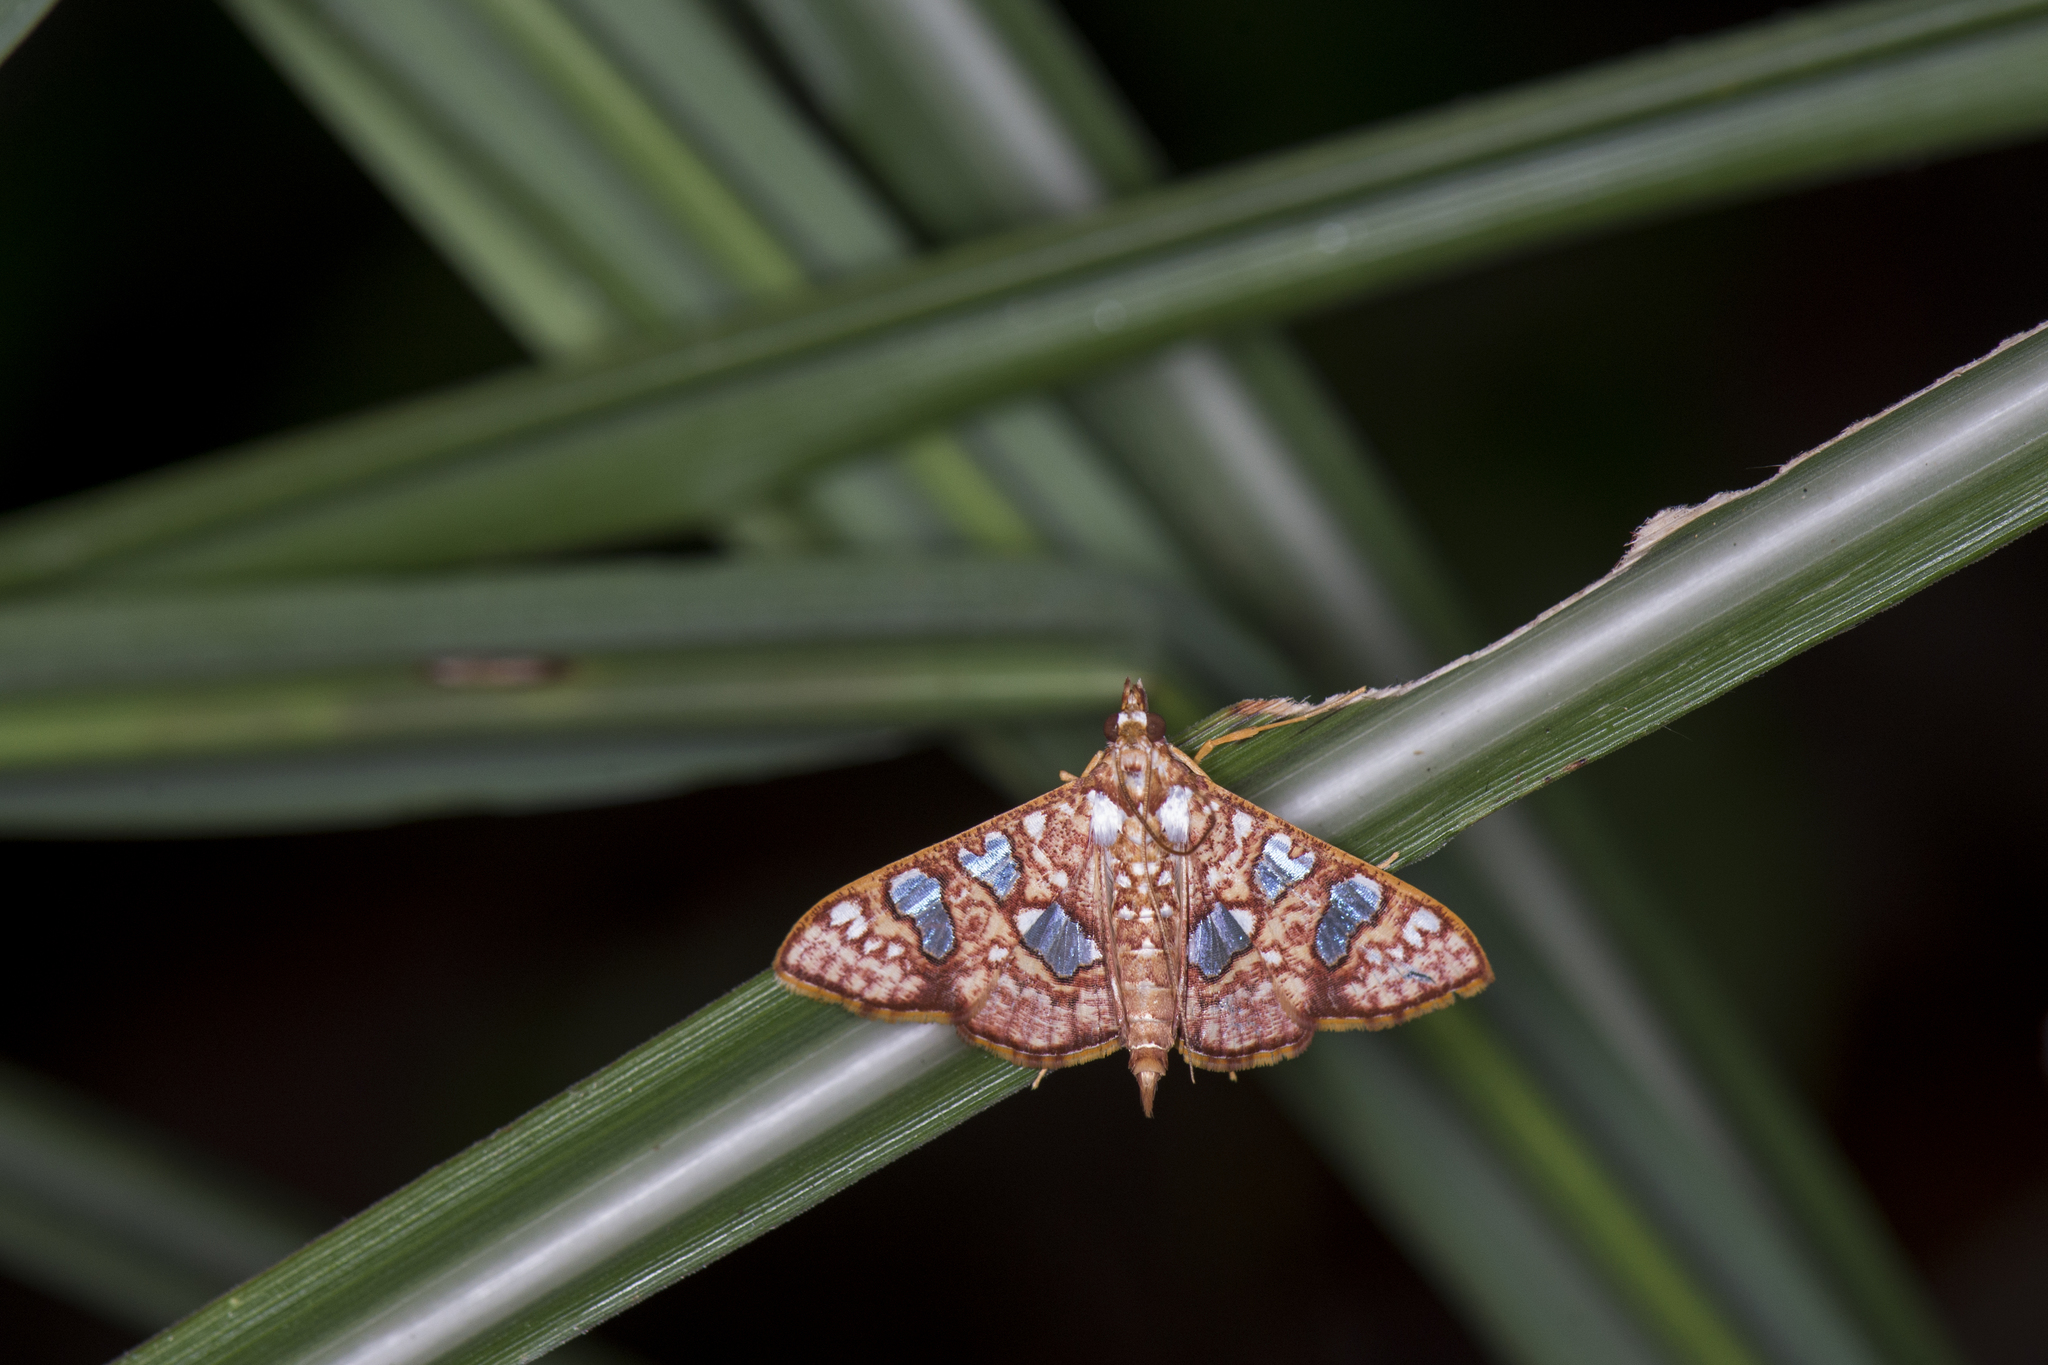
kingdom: Animalia
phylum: Arthropoda
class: Insecta
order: Lepidoptera
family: Crambidae
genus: Glyphodes
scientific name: Glyphodes canthusalis
